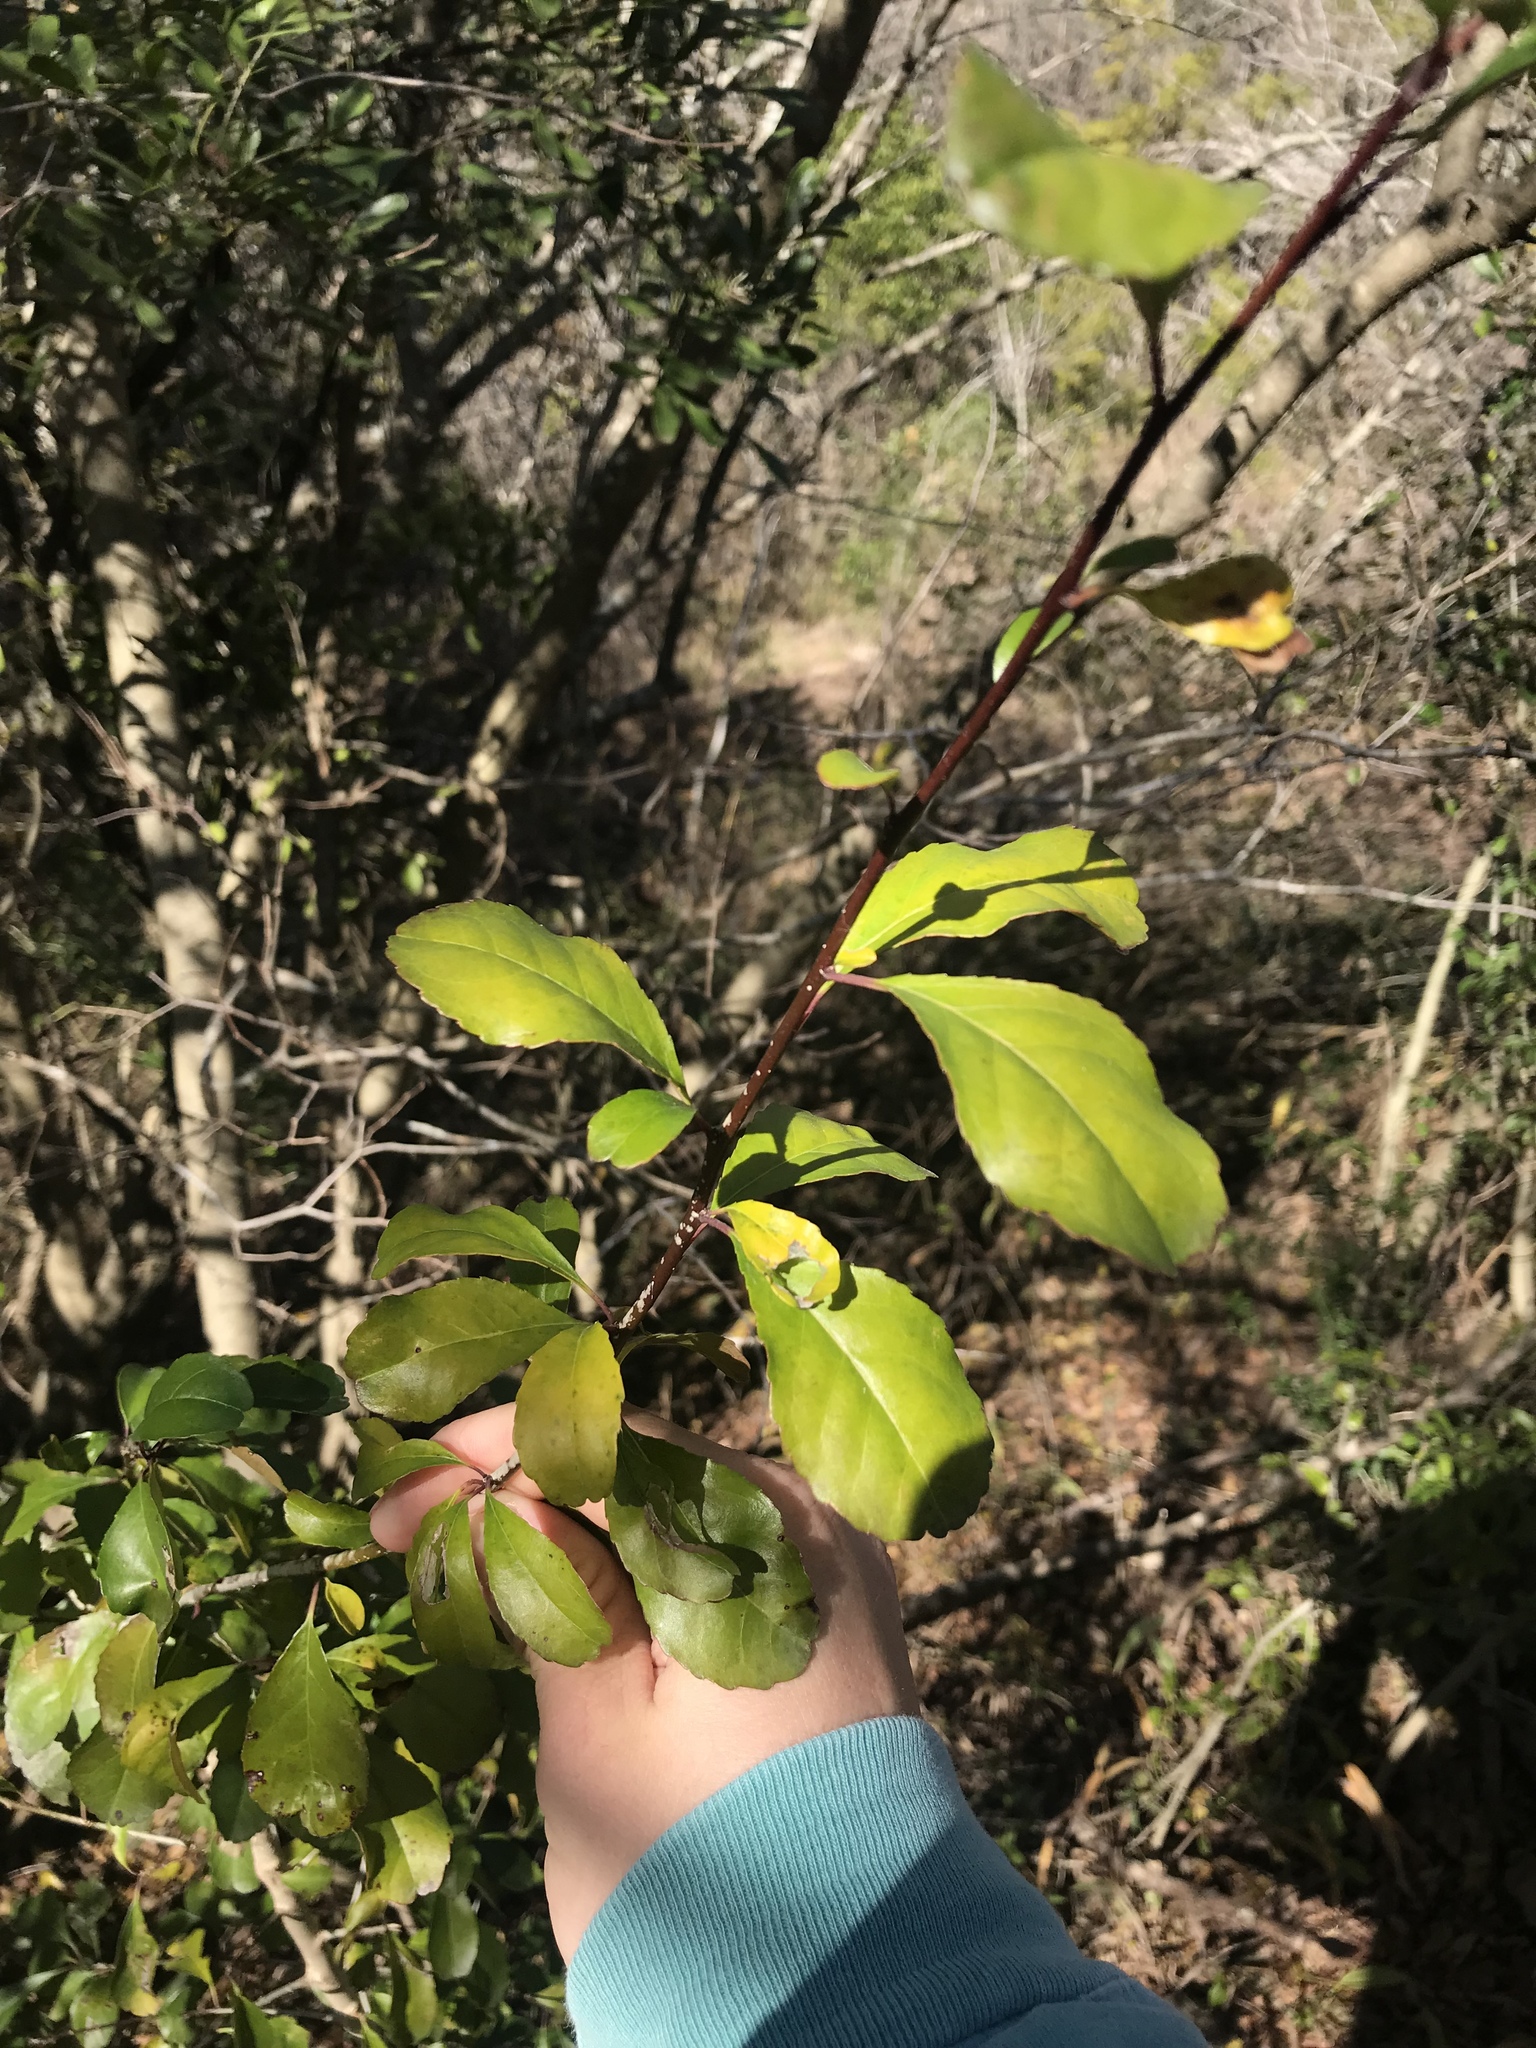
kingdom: Plantae
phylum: Tracheophyta
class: Magnoliopsida
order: Aquifoliales
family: Aquifoliaceae
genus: Ilex
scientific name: Ilex decidua
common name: Possum-haw
